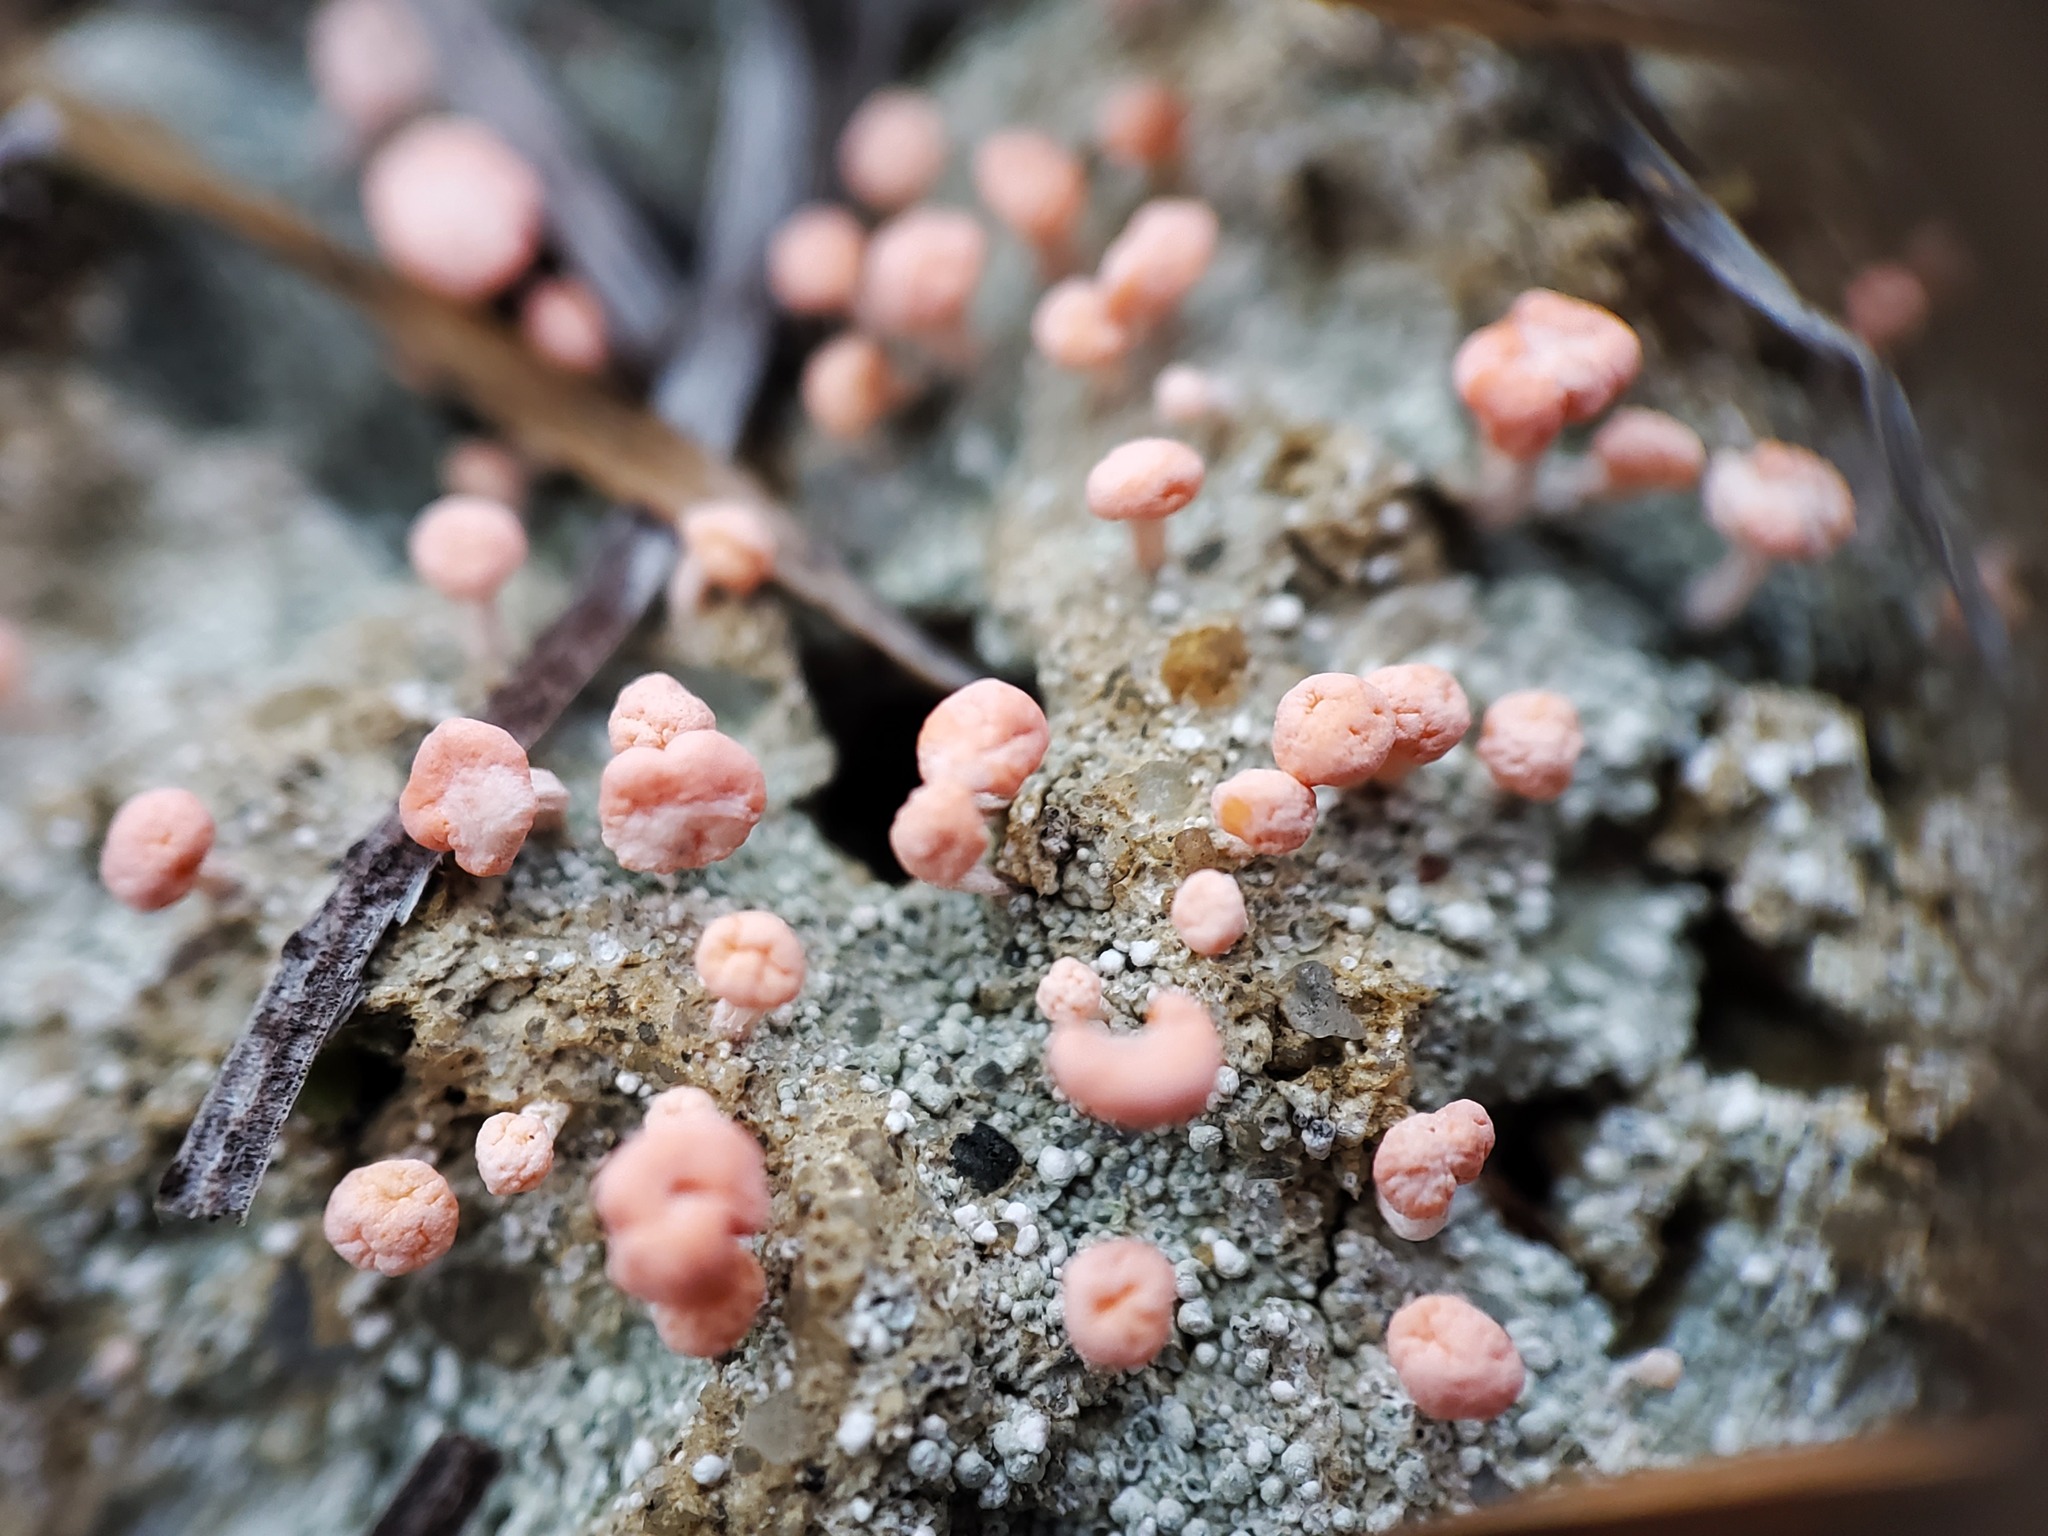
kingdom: Fungi
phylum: Ascomycota
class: Lecanoromycetes
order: Pertusariales
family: Icmadophilaceae
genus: Dibaeis
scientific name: Dibaeis baeomyces
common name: Pink earth lichen
